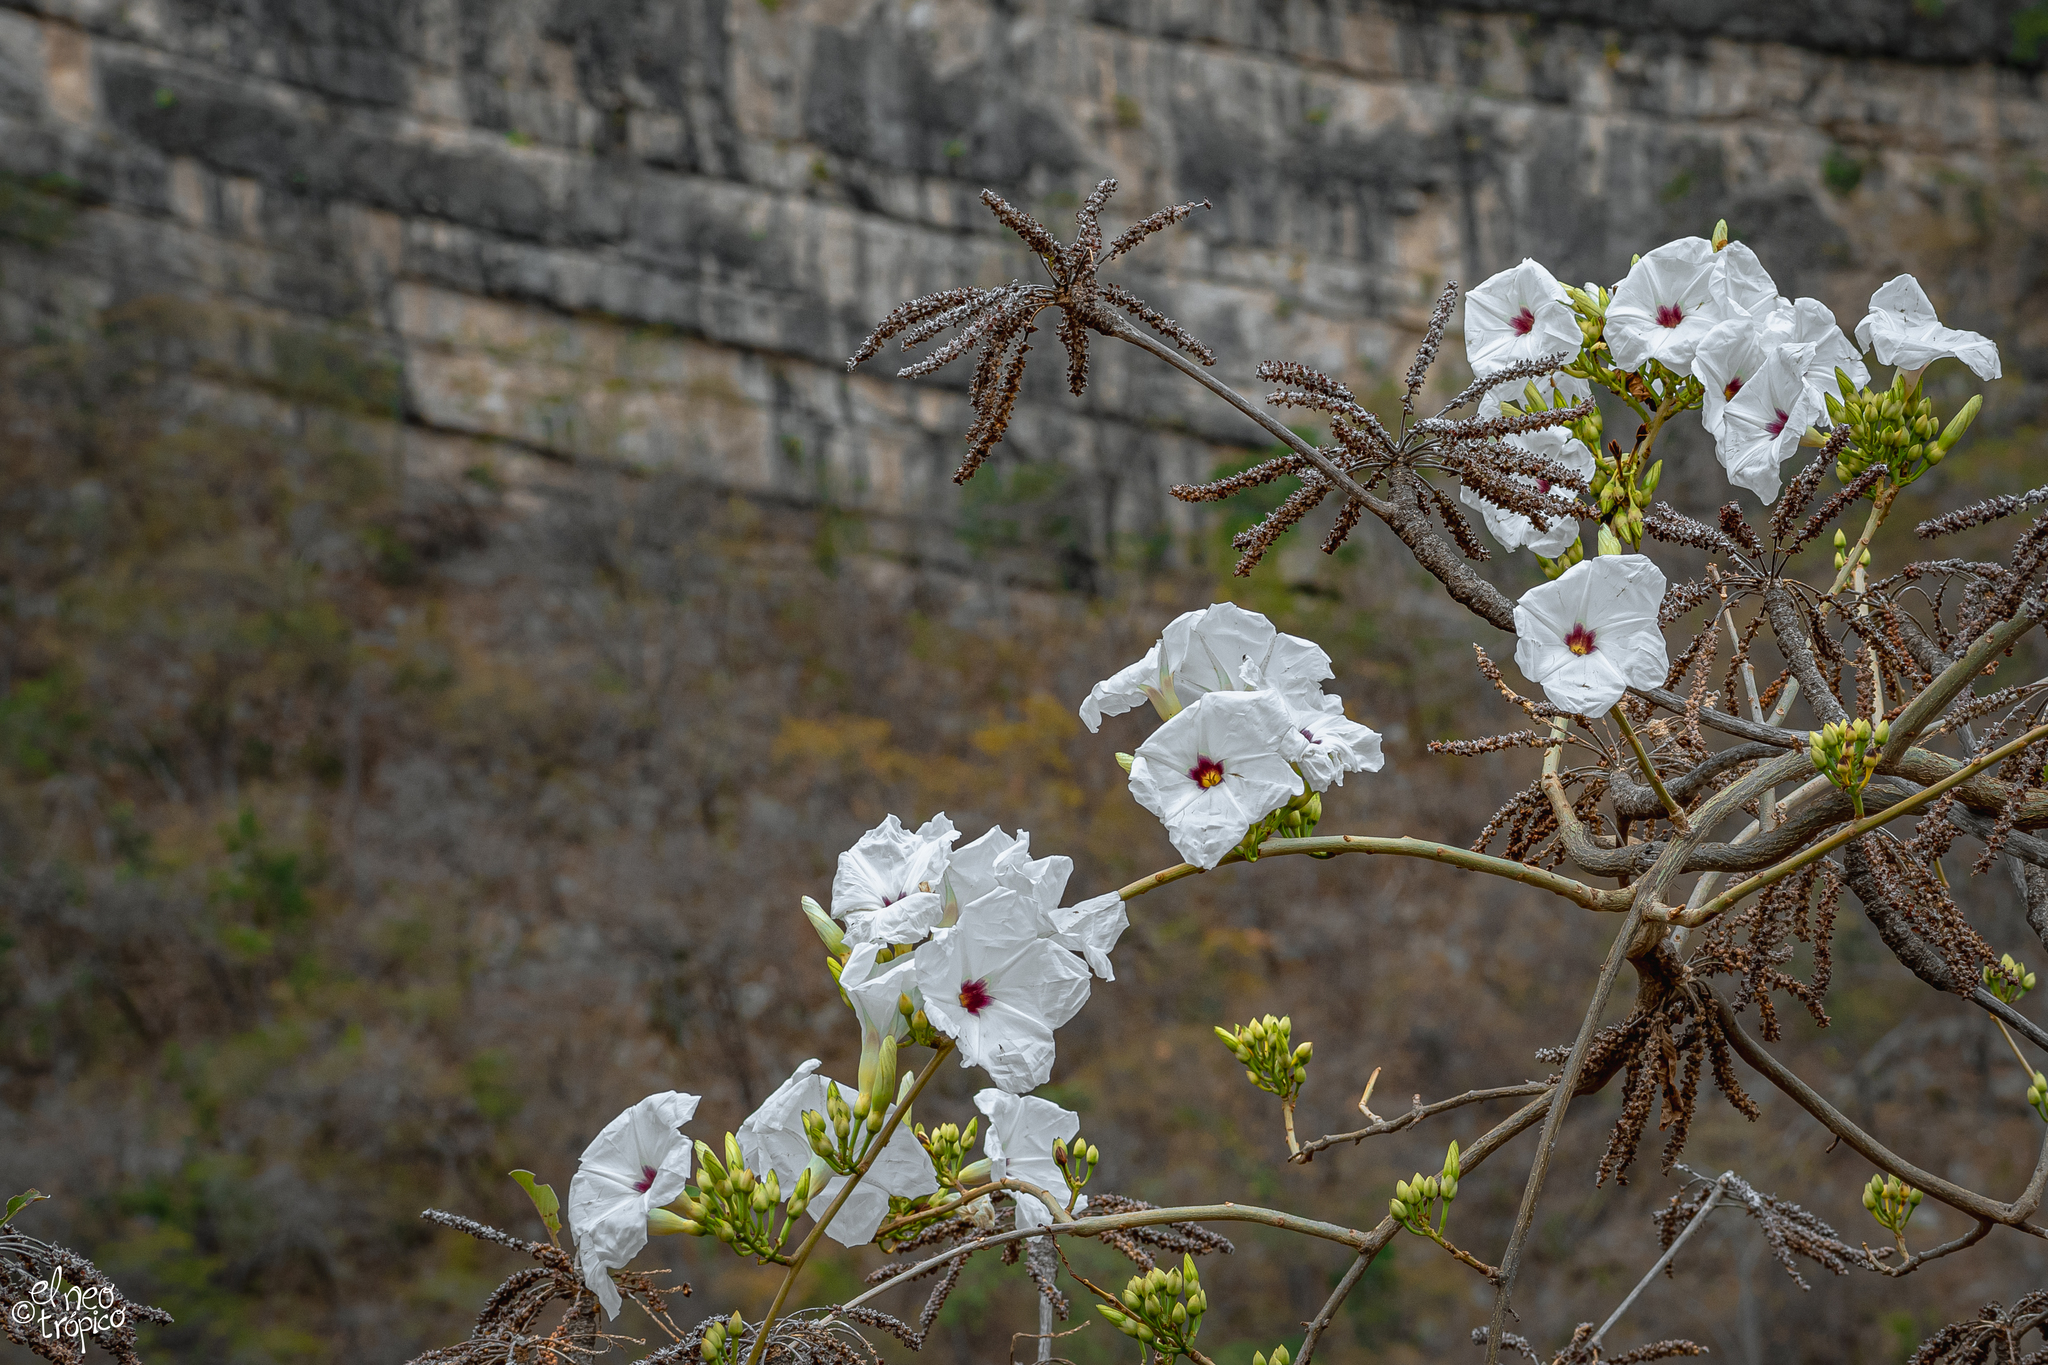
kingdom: Plantae
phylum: Tracheophyta
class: Magnoliopsida
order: Solanales
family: Convolvulaceae
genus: Ipomoea
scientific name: Ipomoea populina
